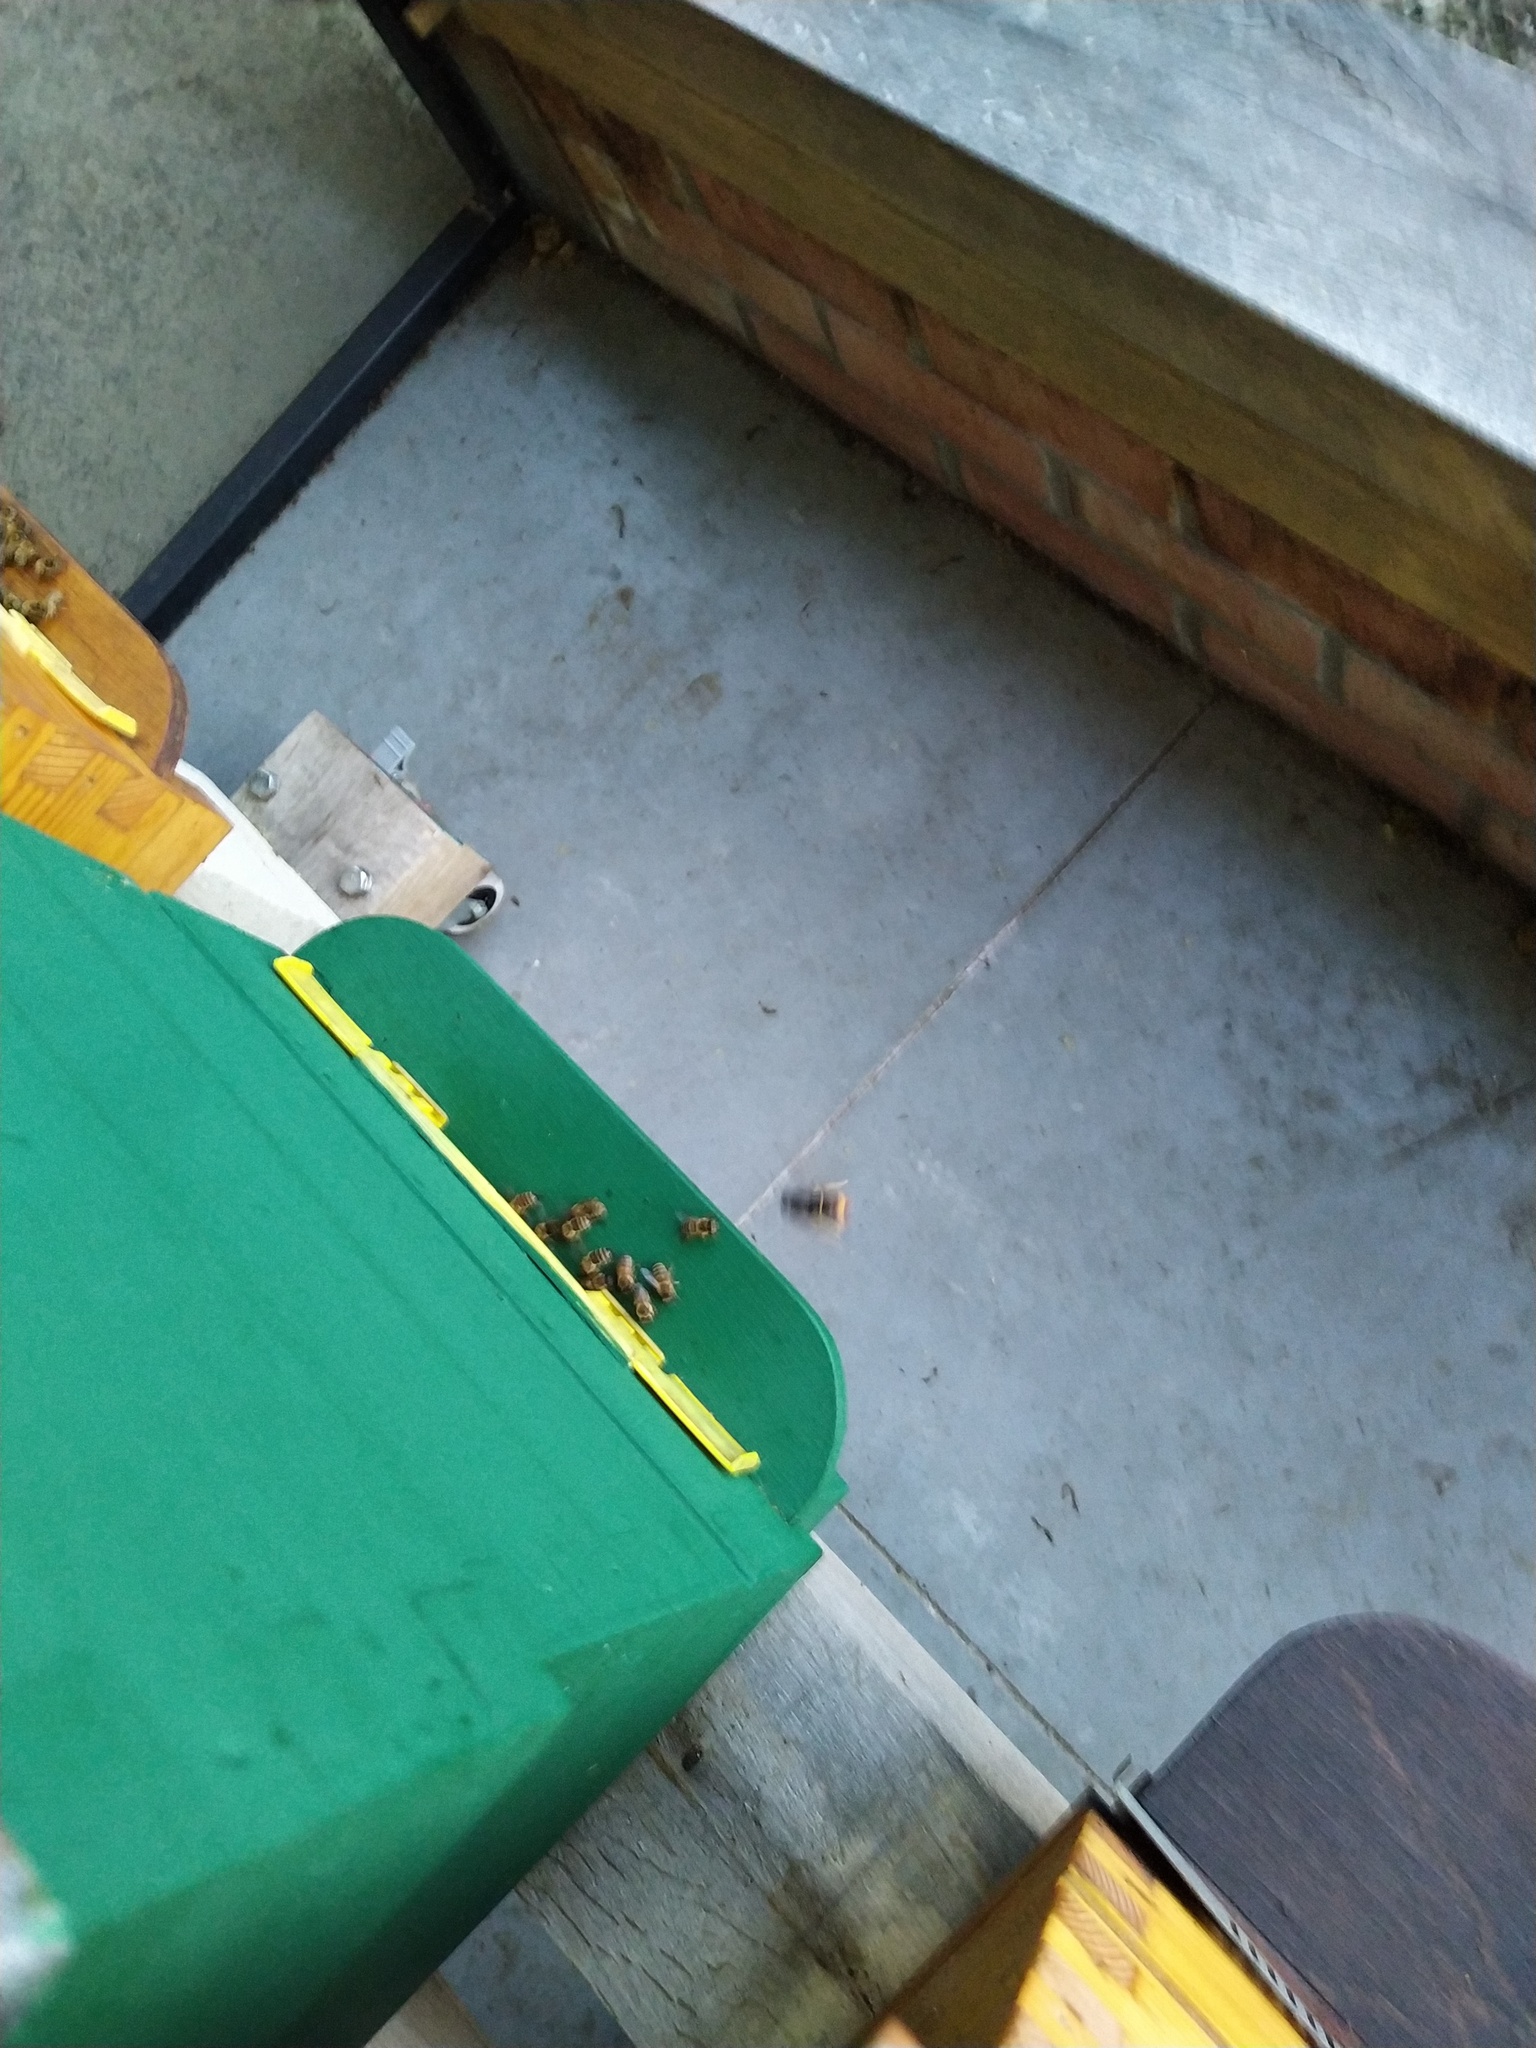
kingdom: Animalia
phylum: Arthropoda
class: Insecta
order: Hymenoptera
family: Vespidae
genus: Vespa
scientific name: Vespa velutina
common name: Asian hornet
